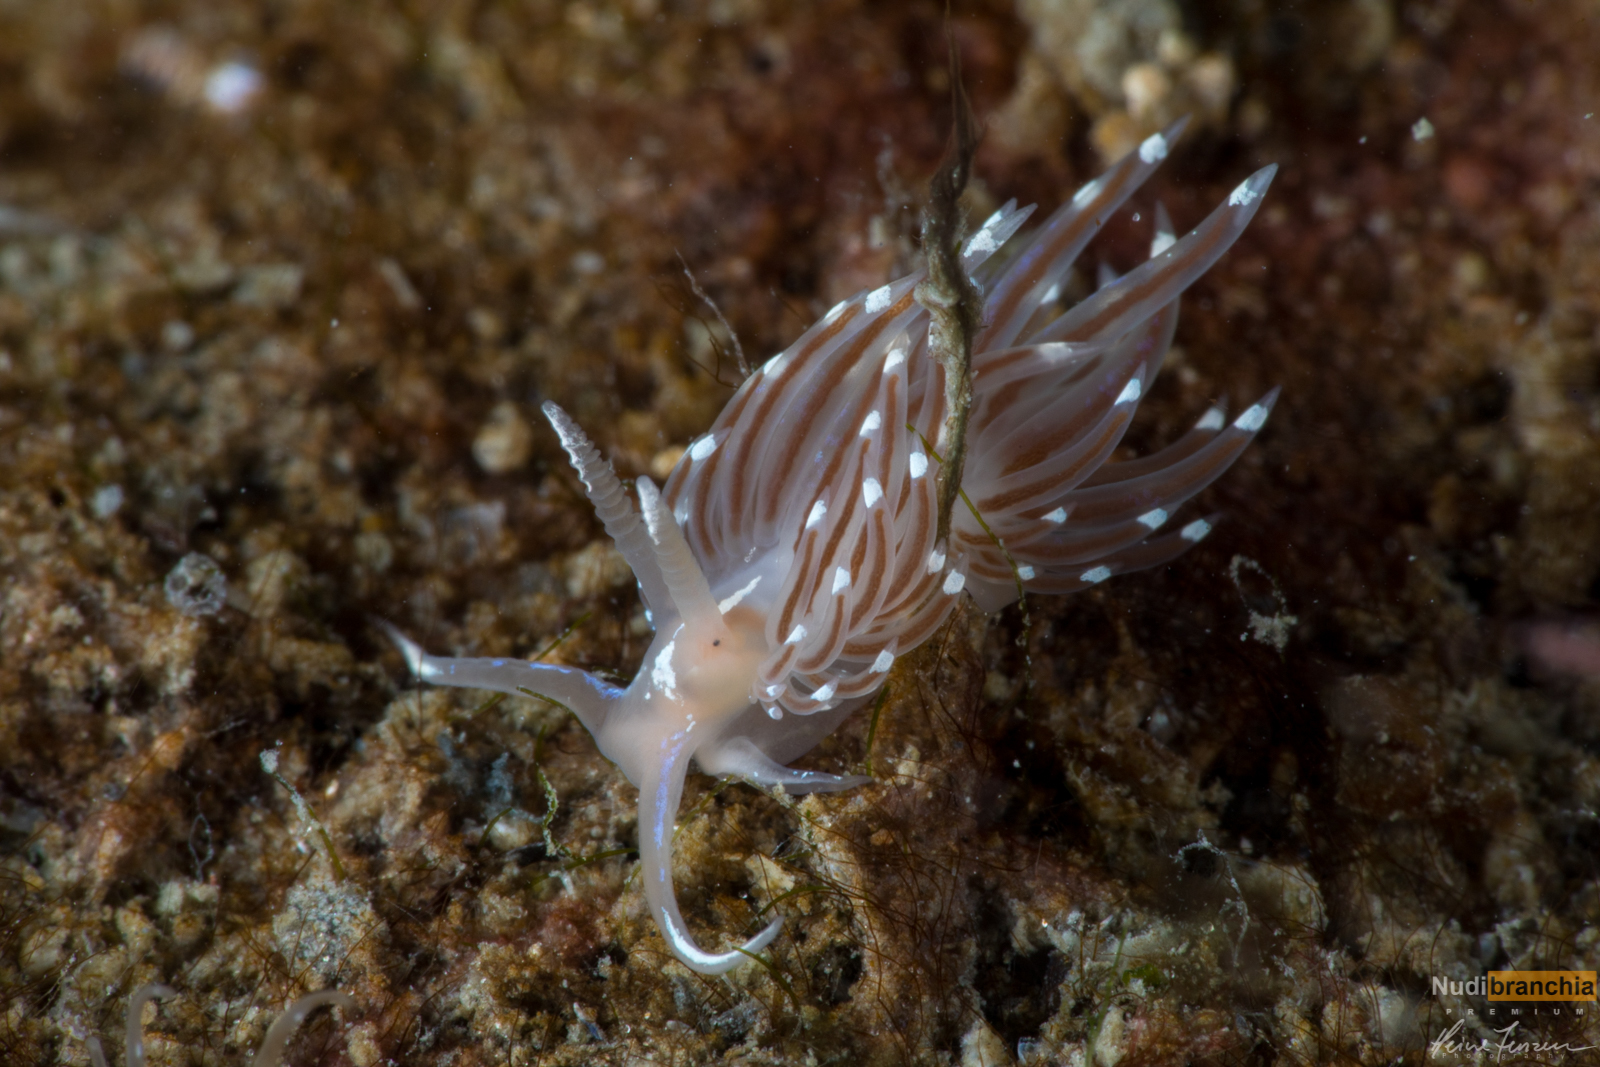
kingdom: Animalia
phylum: Mollusca
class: Gastropoda
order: Nudibranchia
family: Facelinidae
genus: Facelina
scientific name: Facelina bostoniensis
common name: Boston facelina
